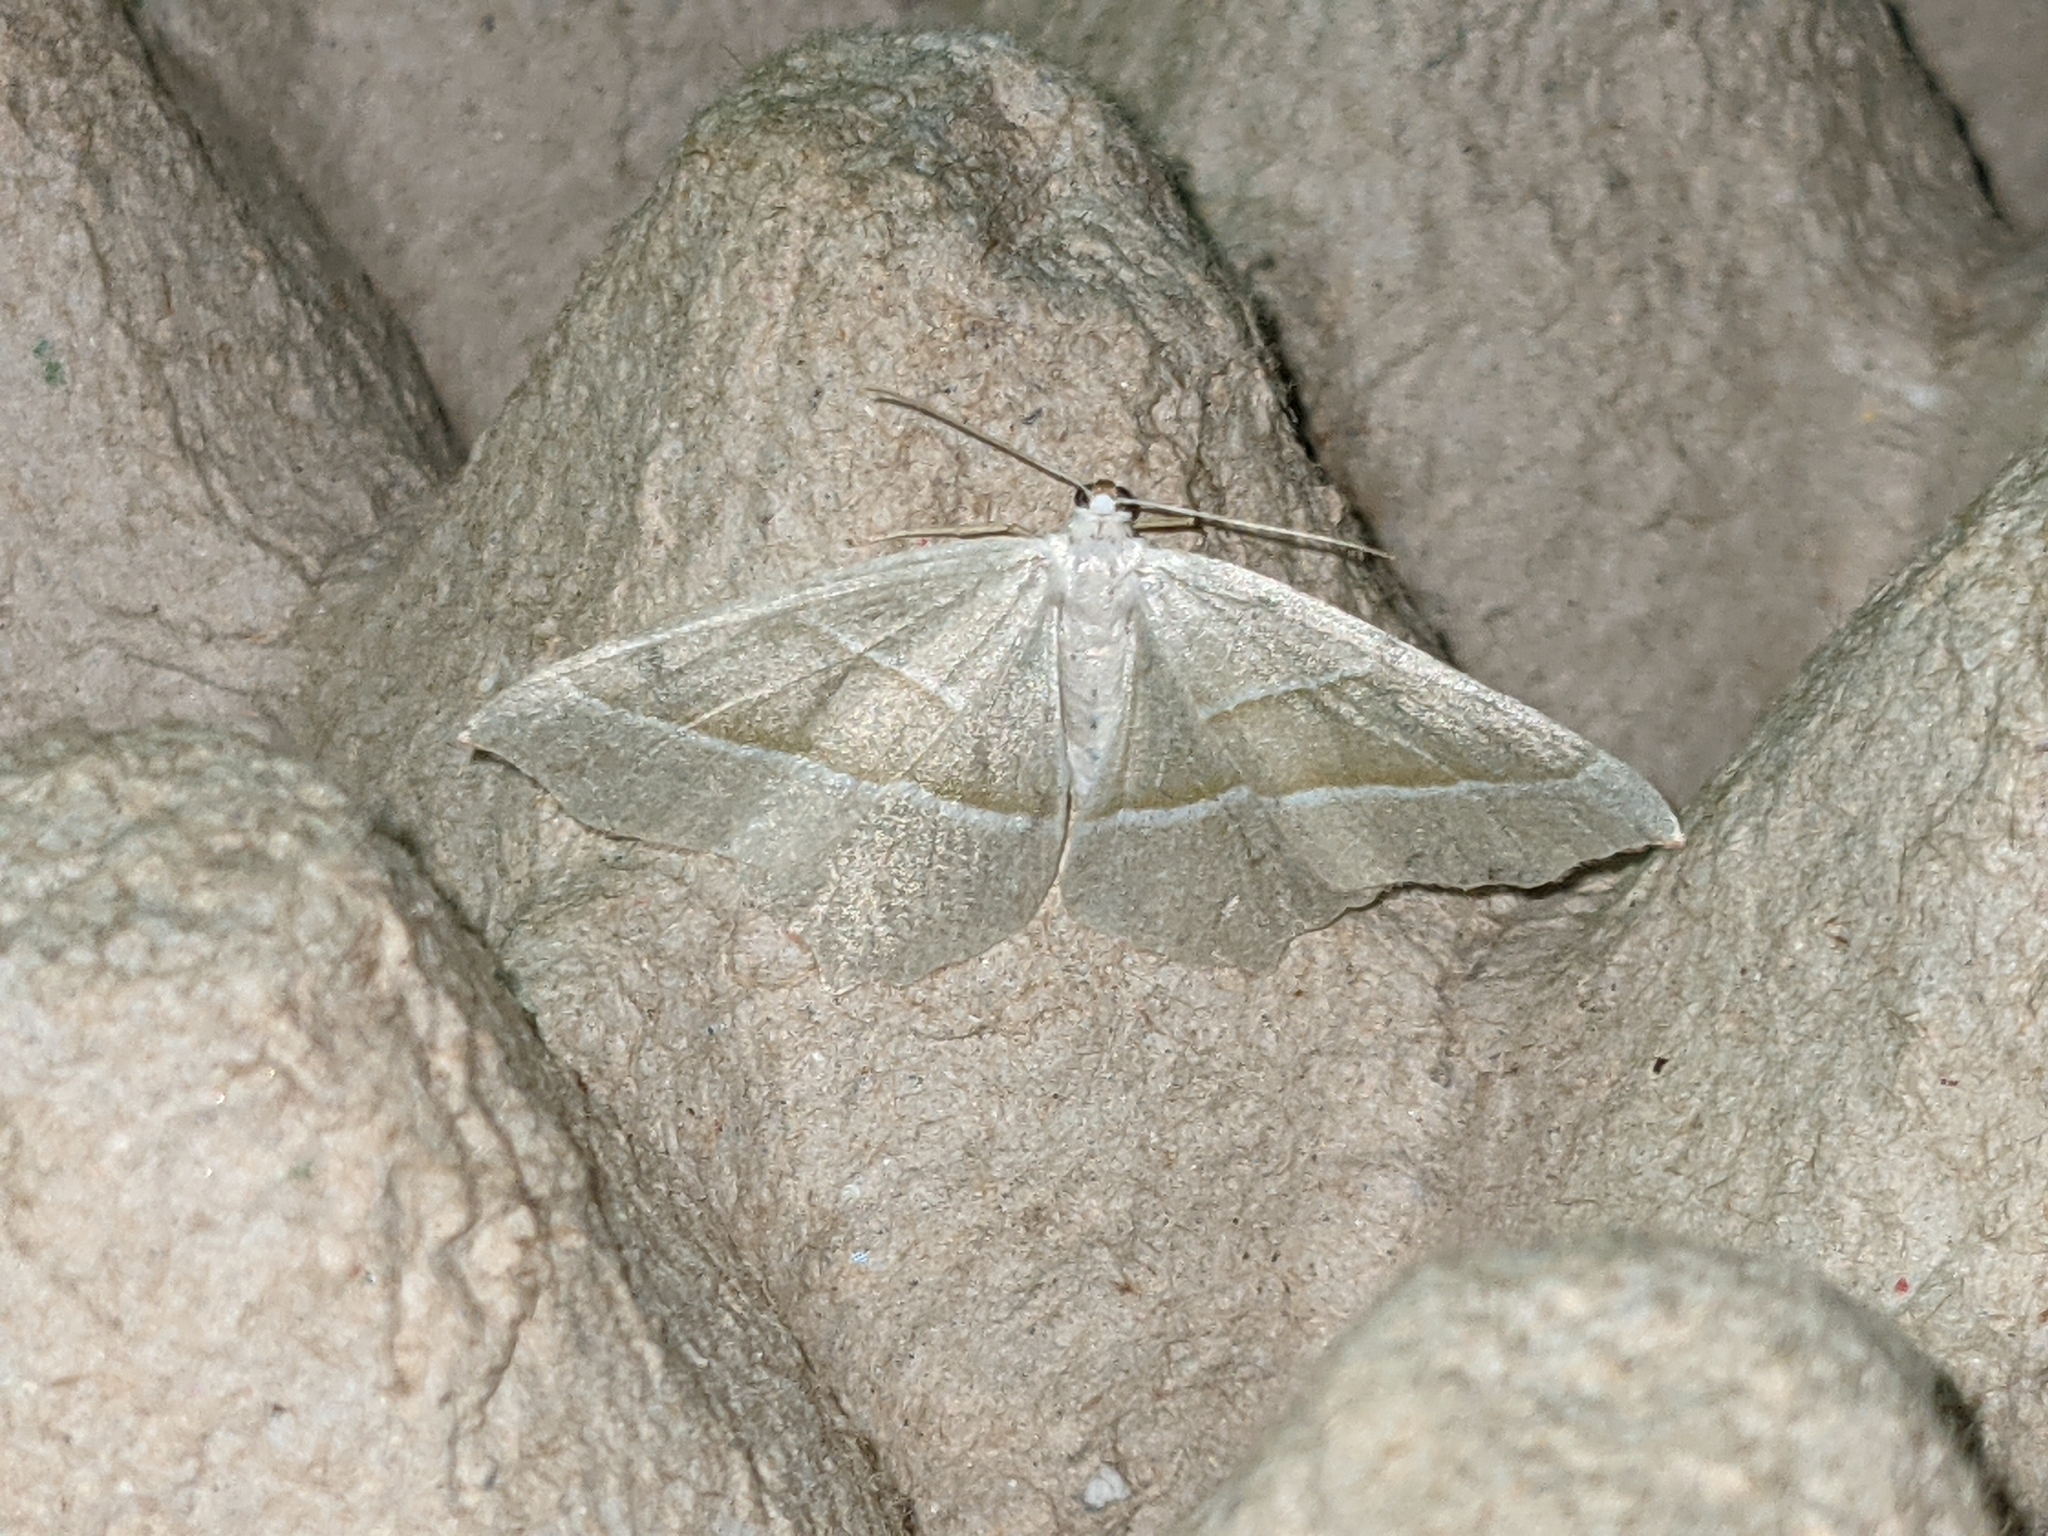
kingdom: Animalia
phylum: Arthropoda
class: Insecta
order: Lepidoptera
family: Geometridae
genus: Campaea
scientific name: Campaea margaritaria
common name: Light emerald
